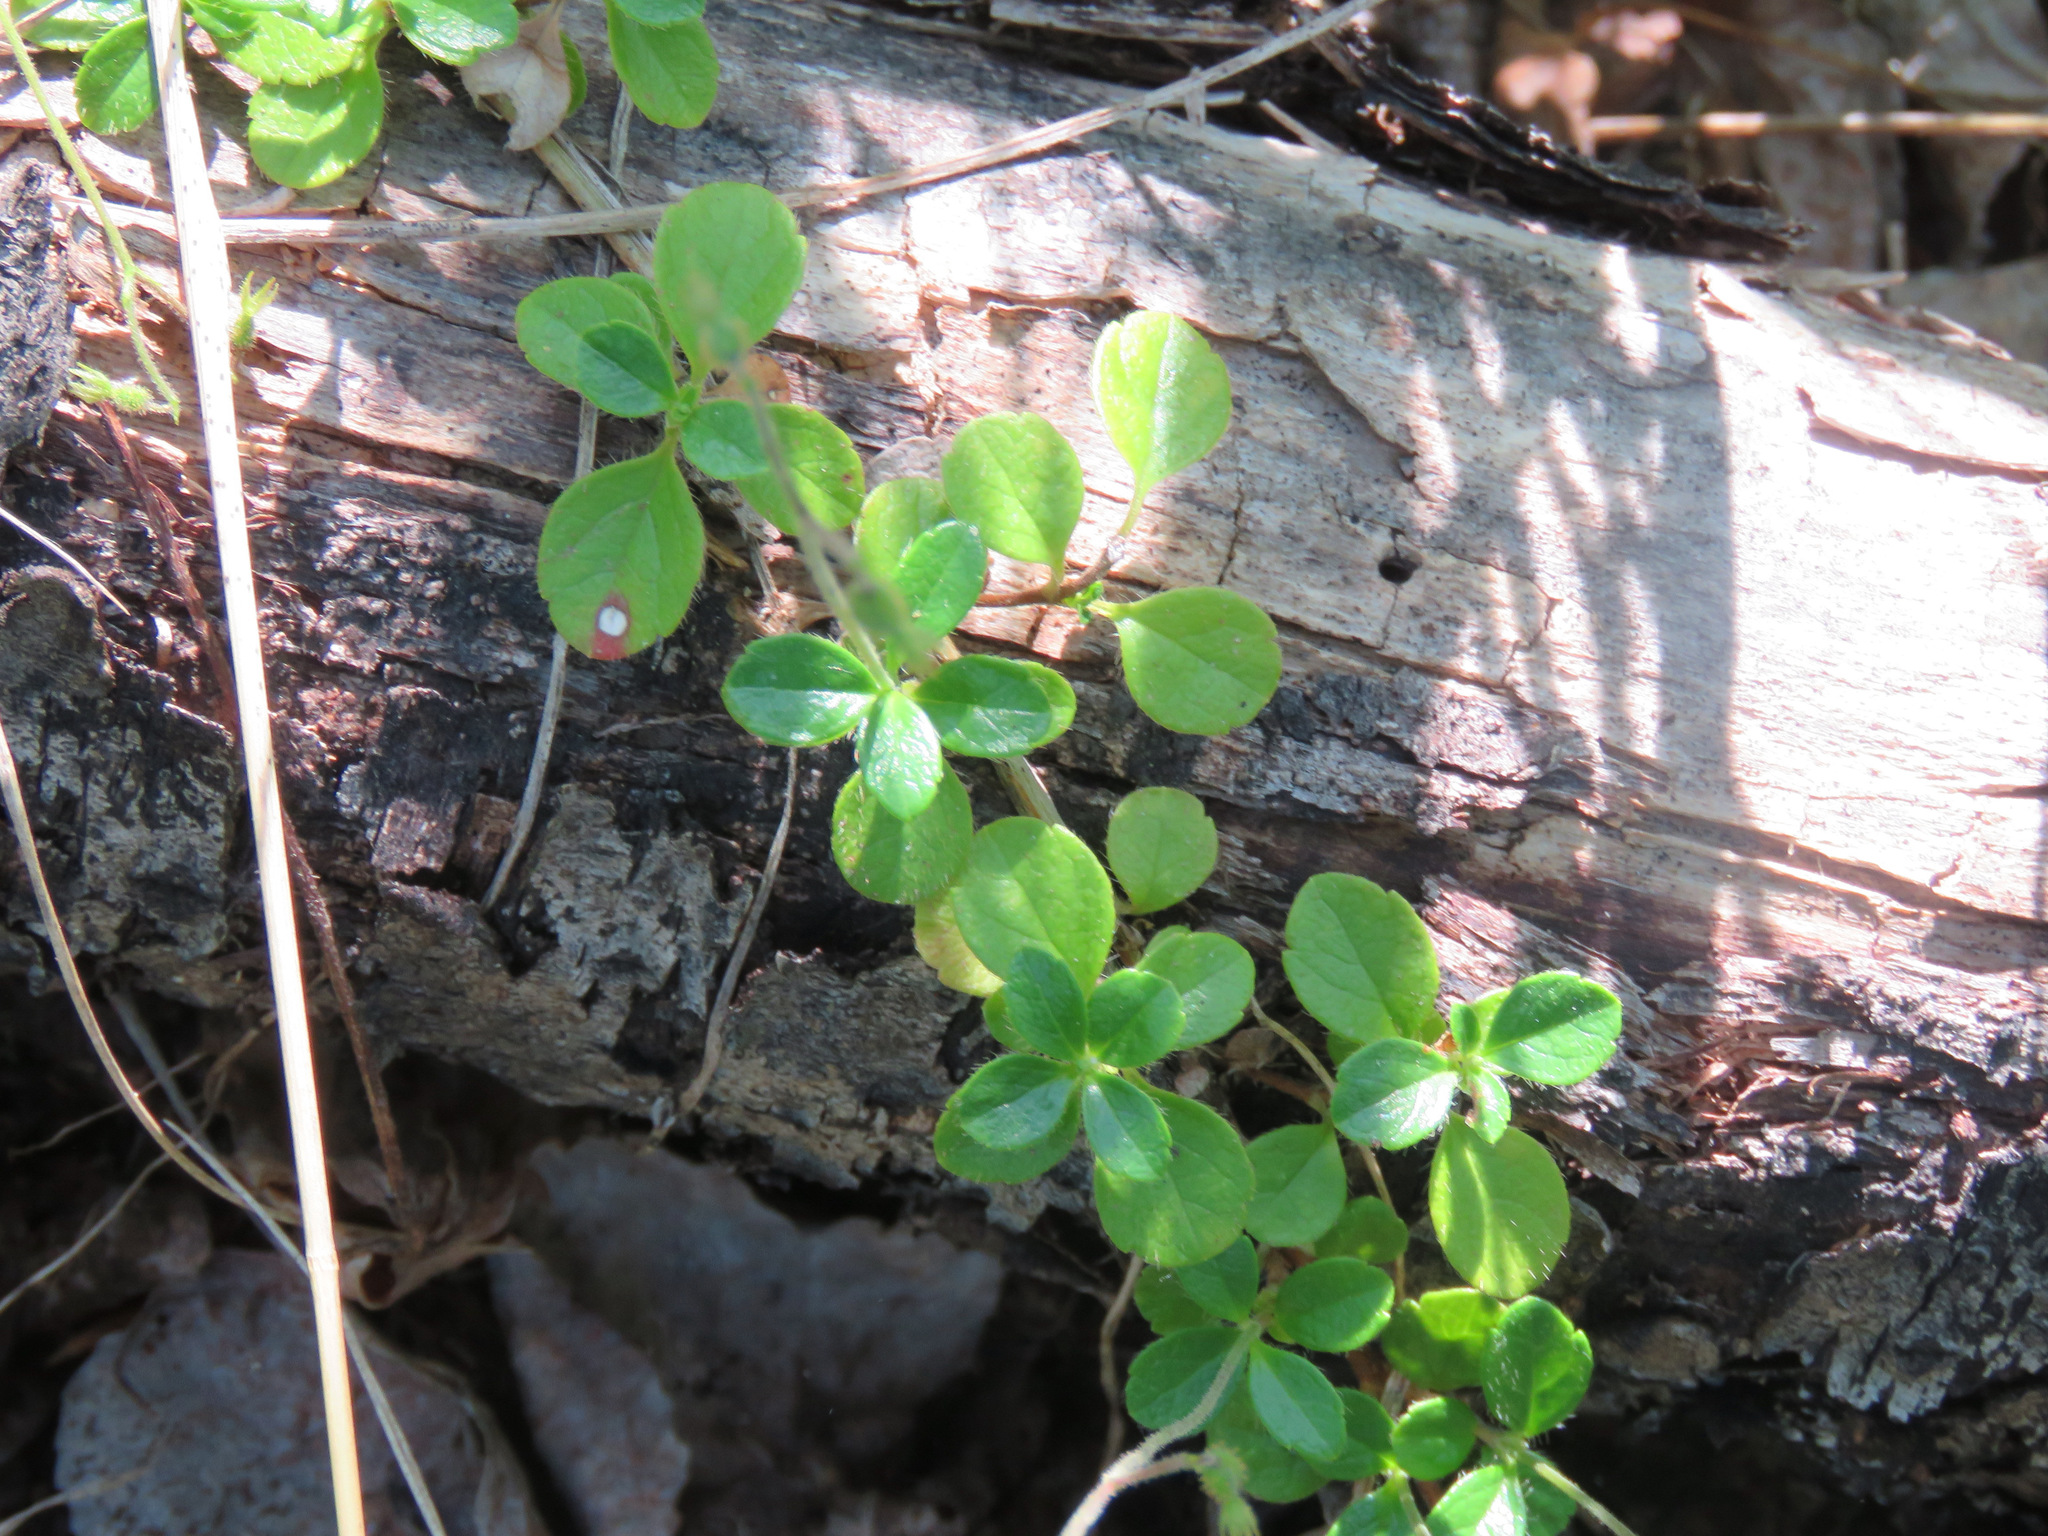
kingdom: Plantae
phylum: Tracheophyta
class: Magnoliopsida
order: Dipsacales
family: Caprifoliaceae
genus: Linnaea
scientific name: Linnaea borealis
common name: Twinflower
